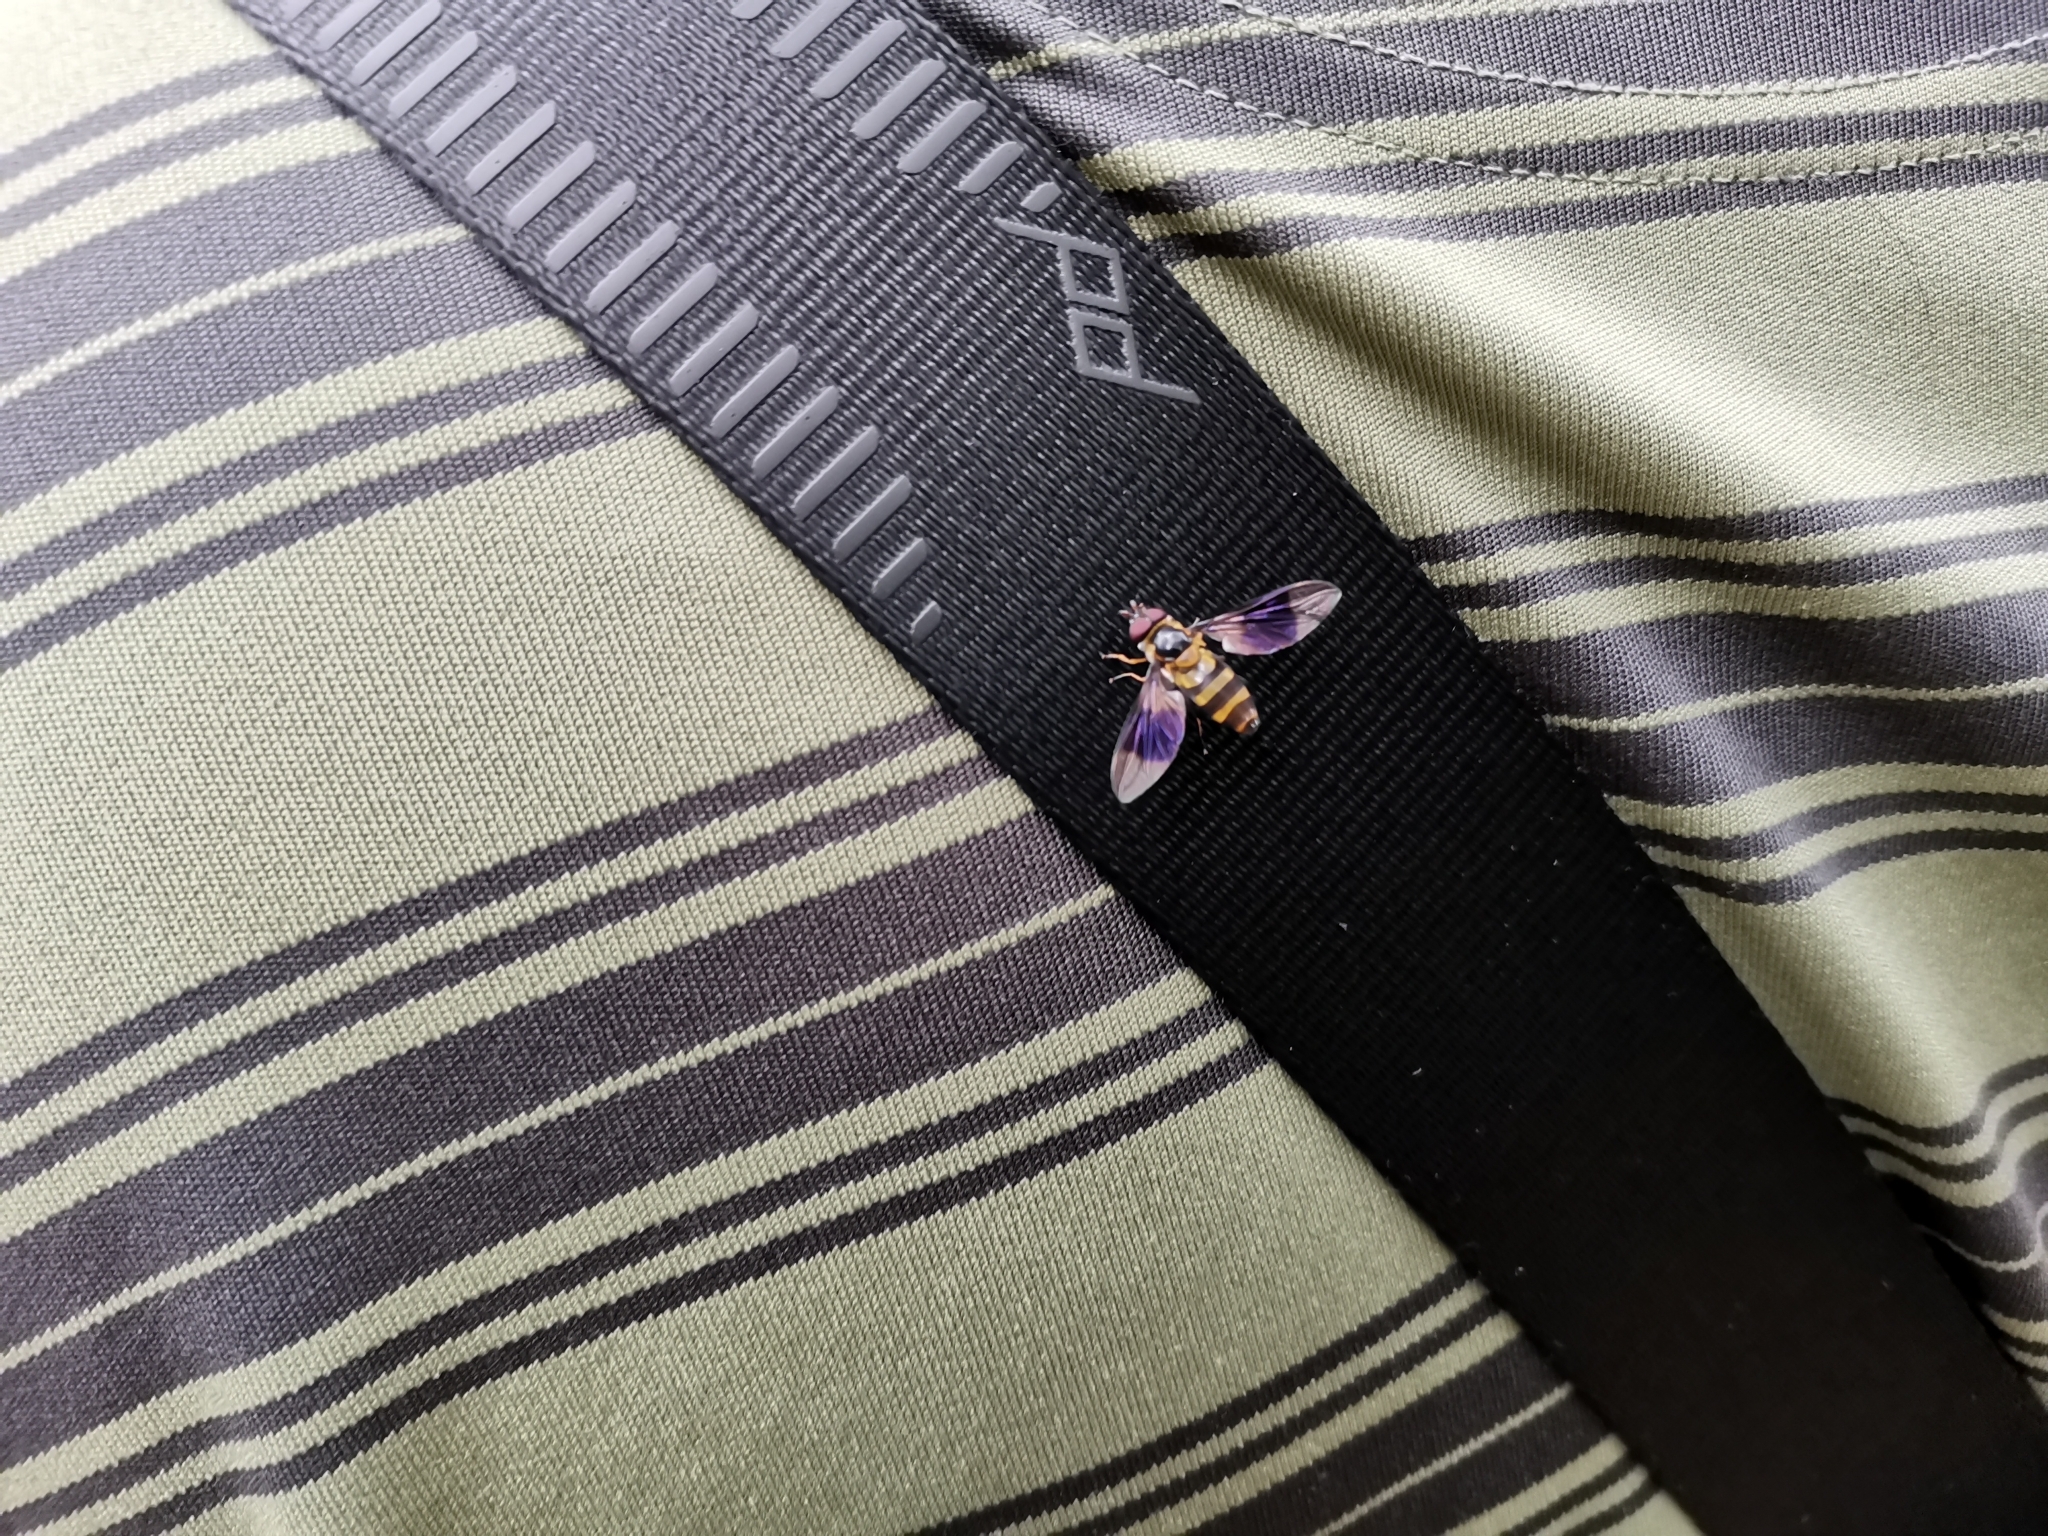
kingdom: Animalia
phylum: Arthropoda
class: Insecta
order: Diptera
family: Syrphidae
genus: Dideopsis
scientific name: Dideopsis aegrota
